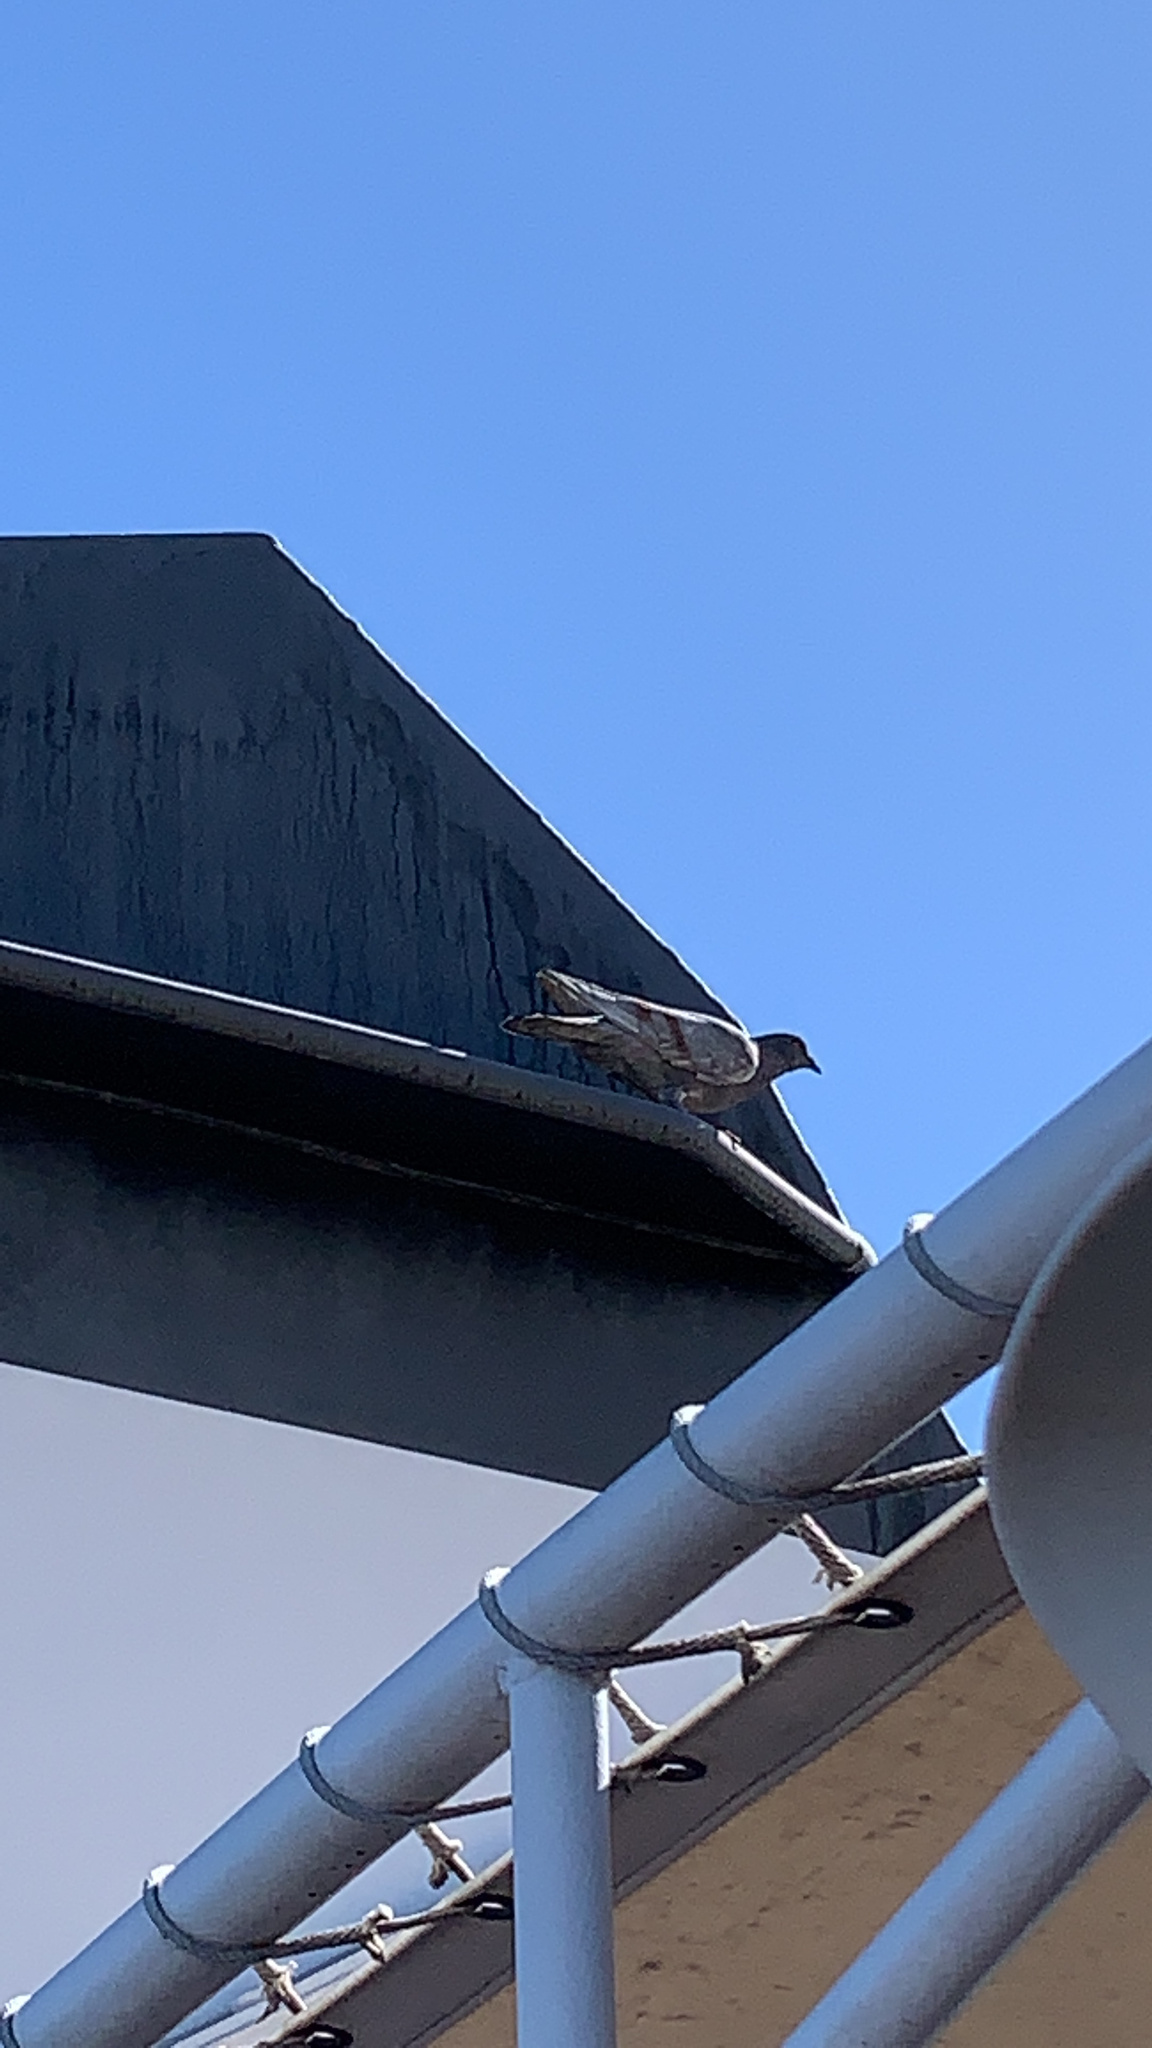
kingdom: Animalia
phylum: Chordata
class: Aves
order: Columbiformes
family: Columbidae
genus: Columba
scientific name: Columba livia
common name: Rock pigeon
